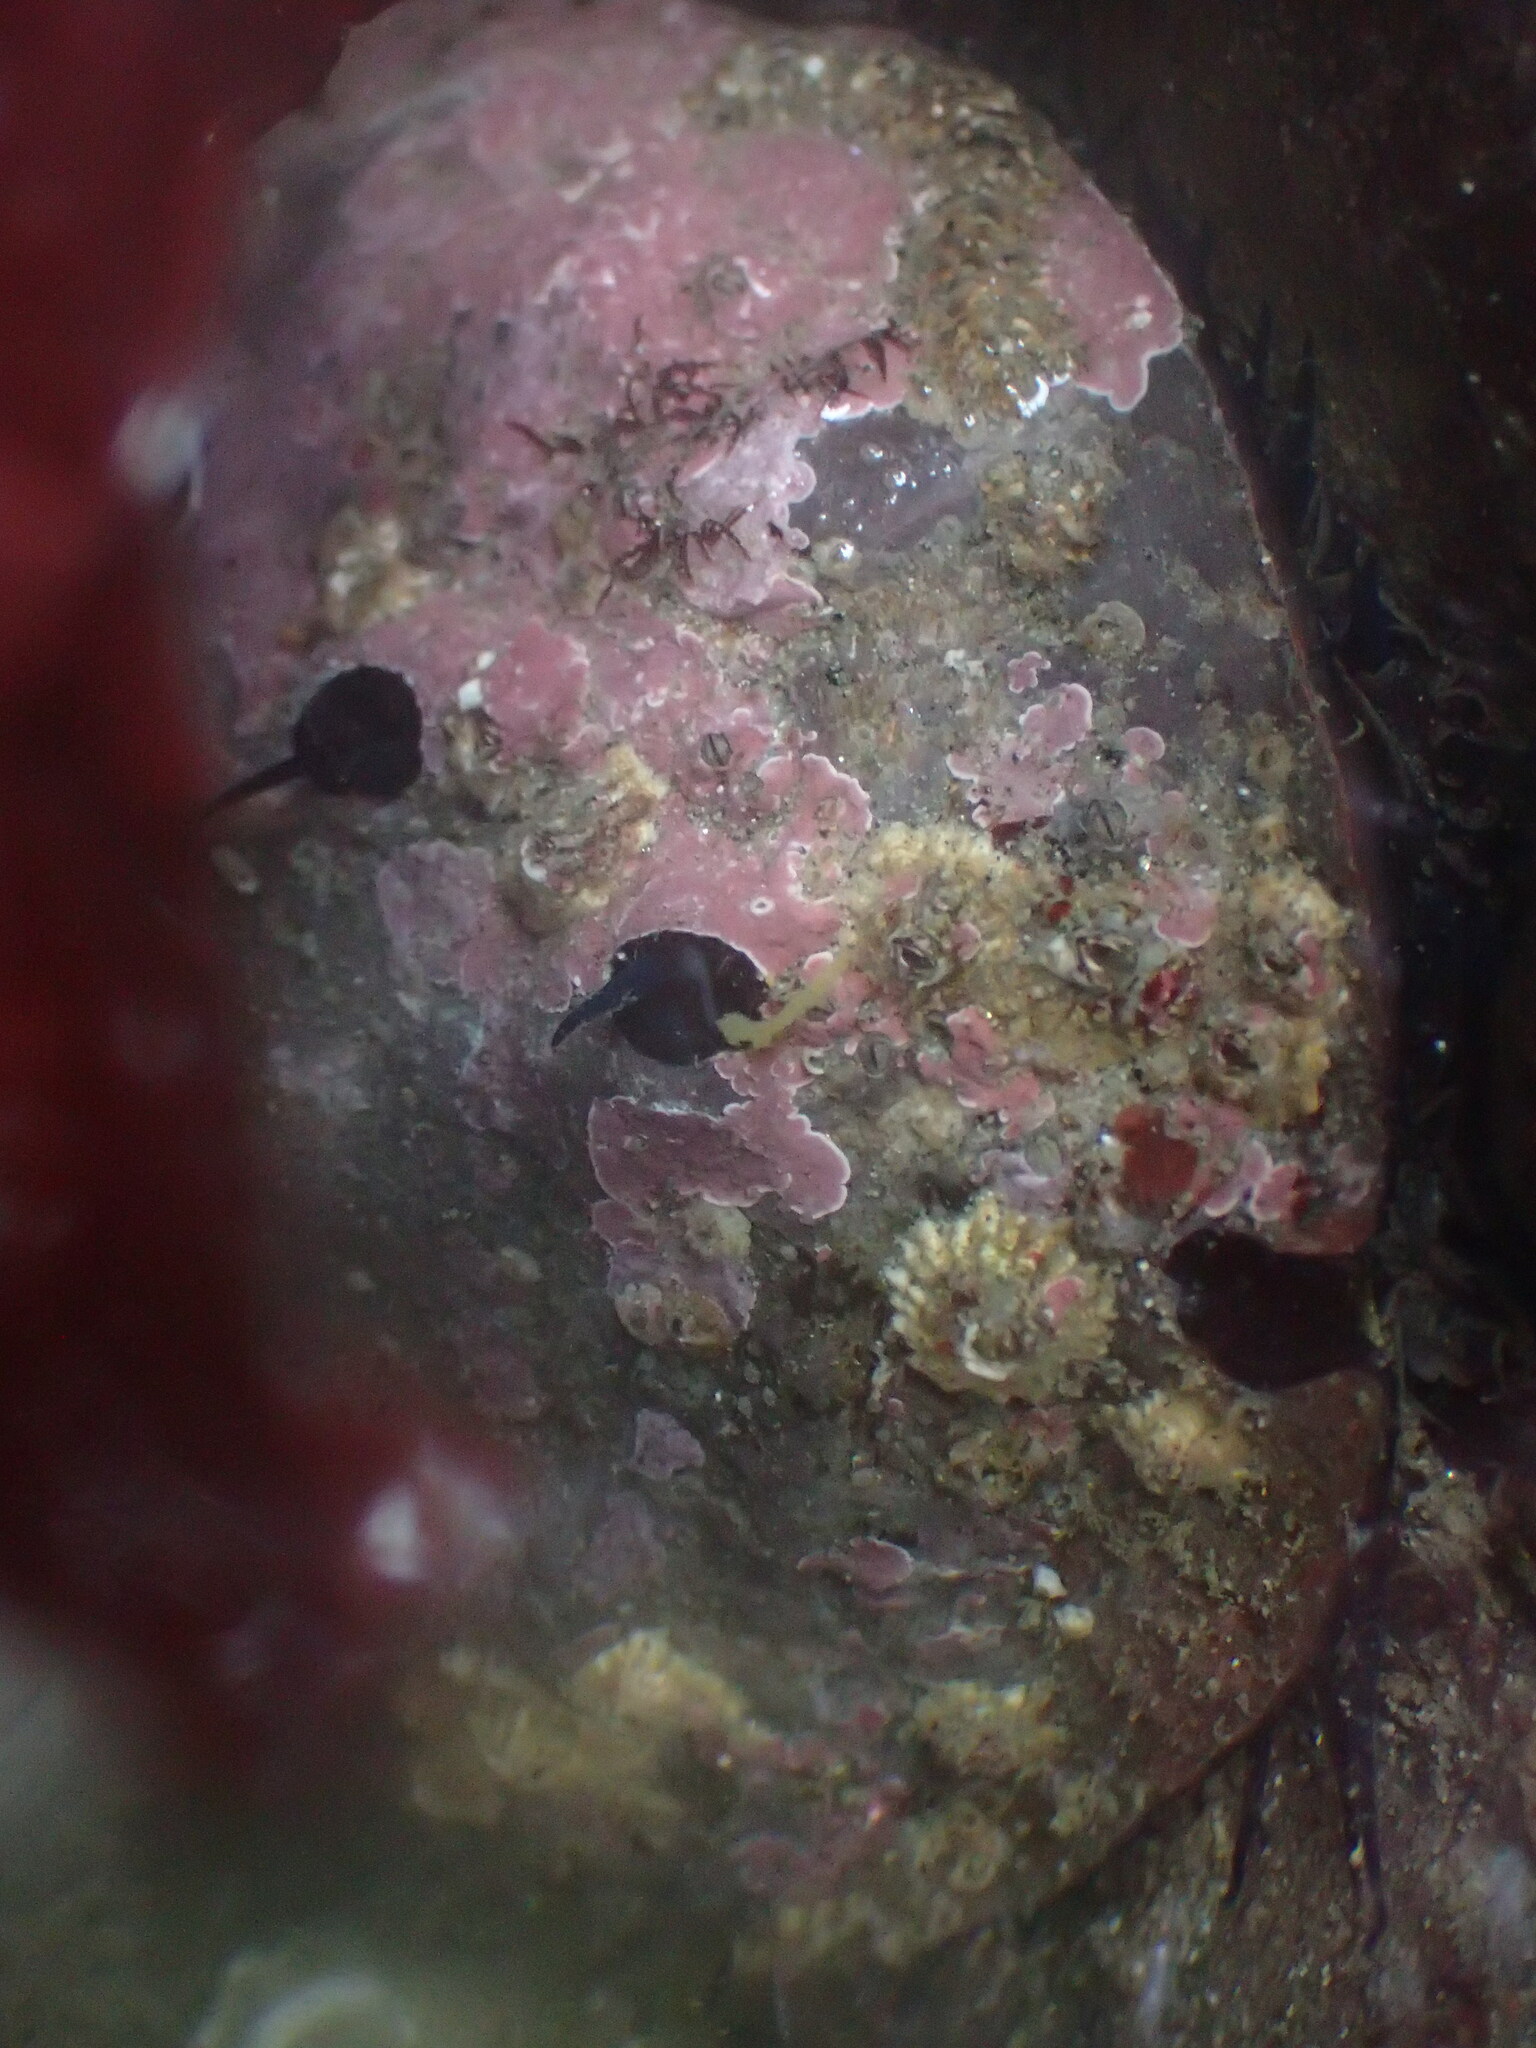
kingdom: Animalia
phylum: Mollusca
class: Gastropoda
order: Lepetellida
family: Haliotidae
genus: Haliotis
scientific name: Haliotis rufescens
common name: Red abalone
